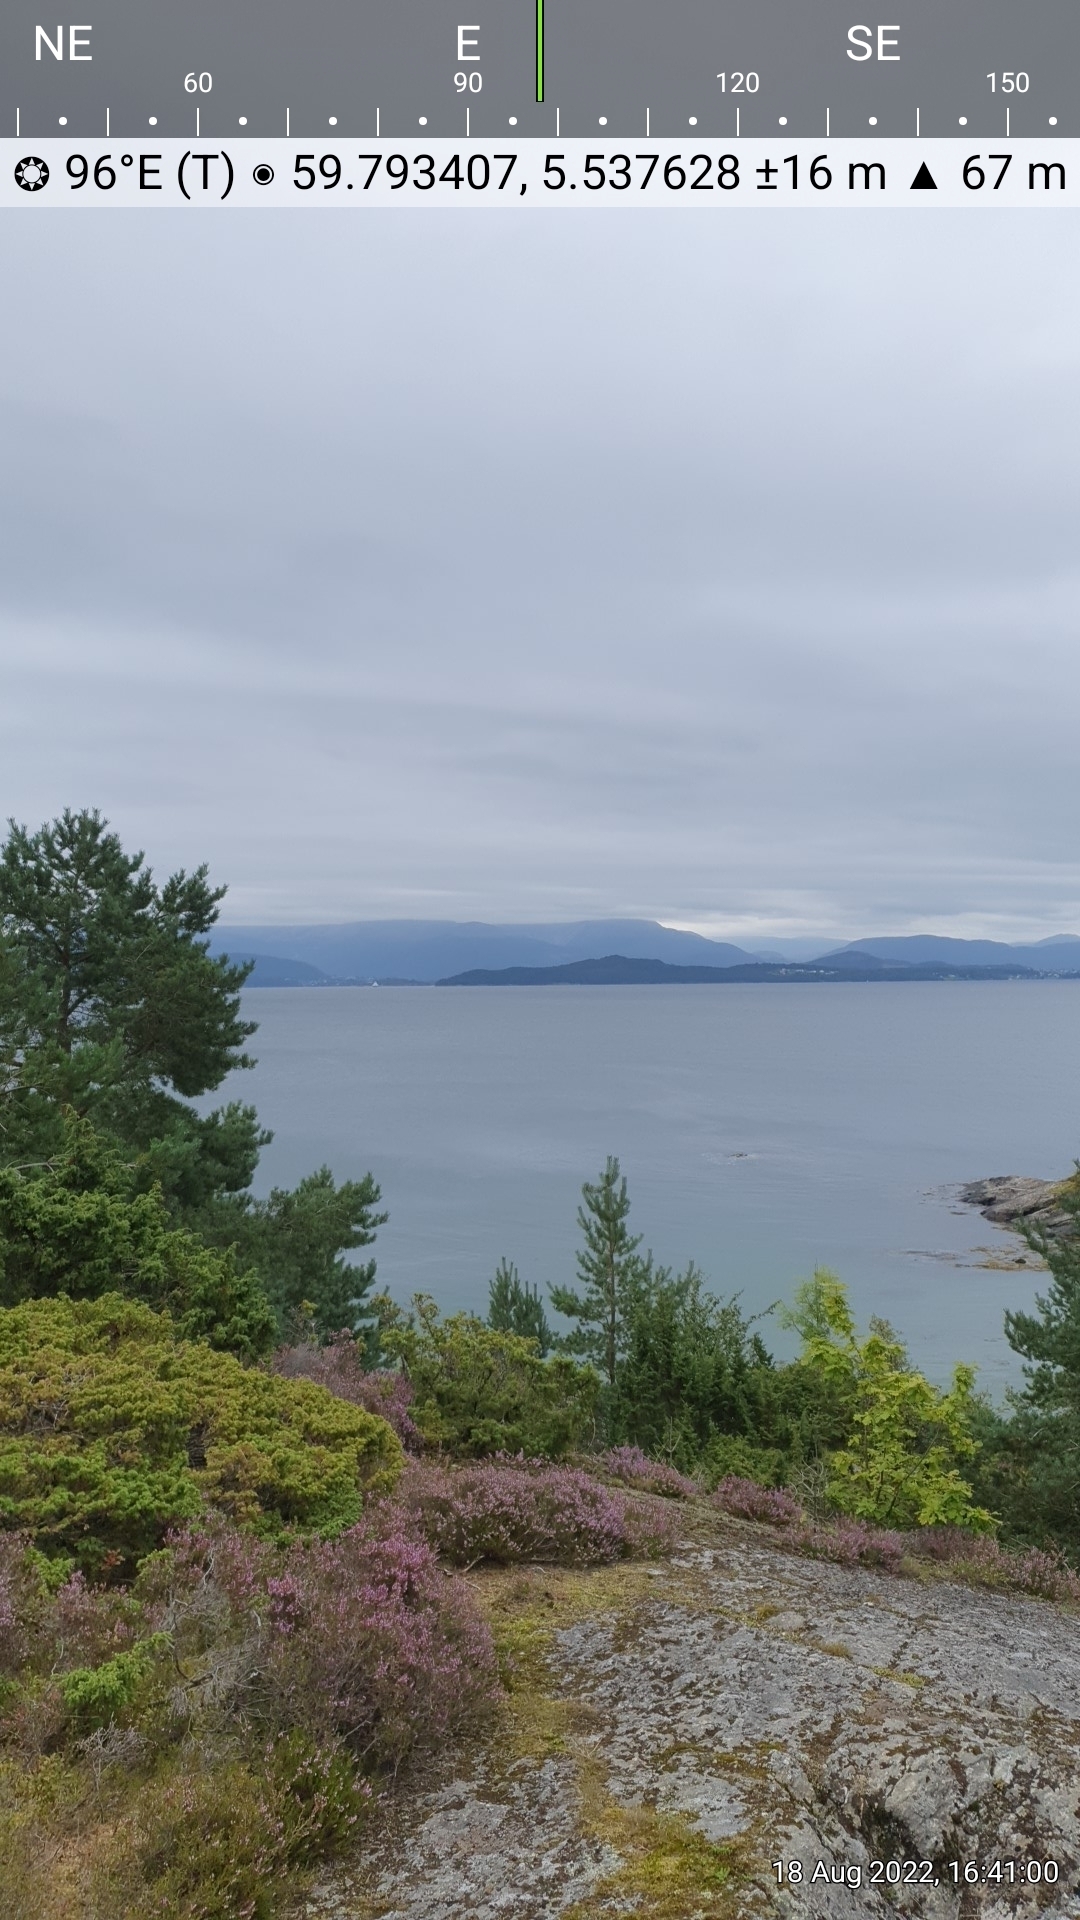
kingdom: Plantae
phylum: Tracheophyta
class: Magnoliopsida
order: Caryophyllales
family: Caryophyllaceae
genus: Atocion
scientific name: Atocion rupestre
